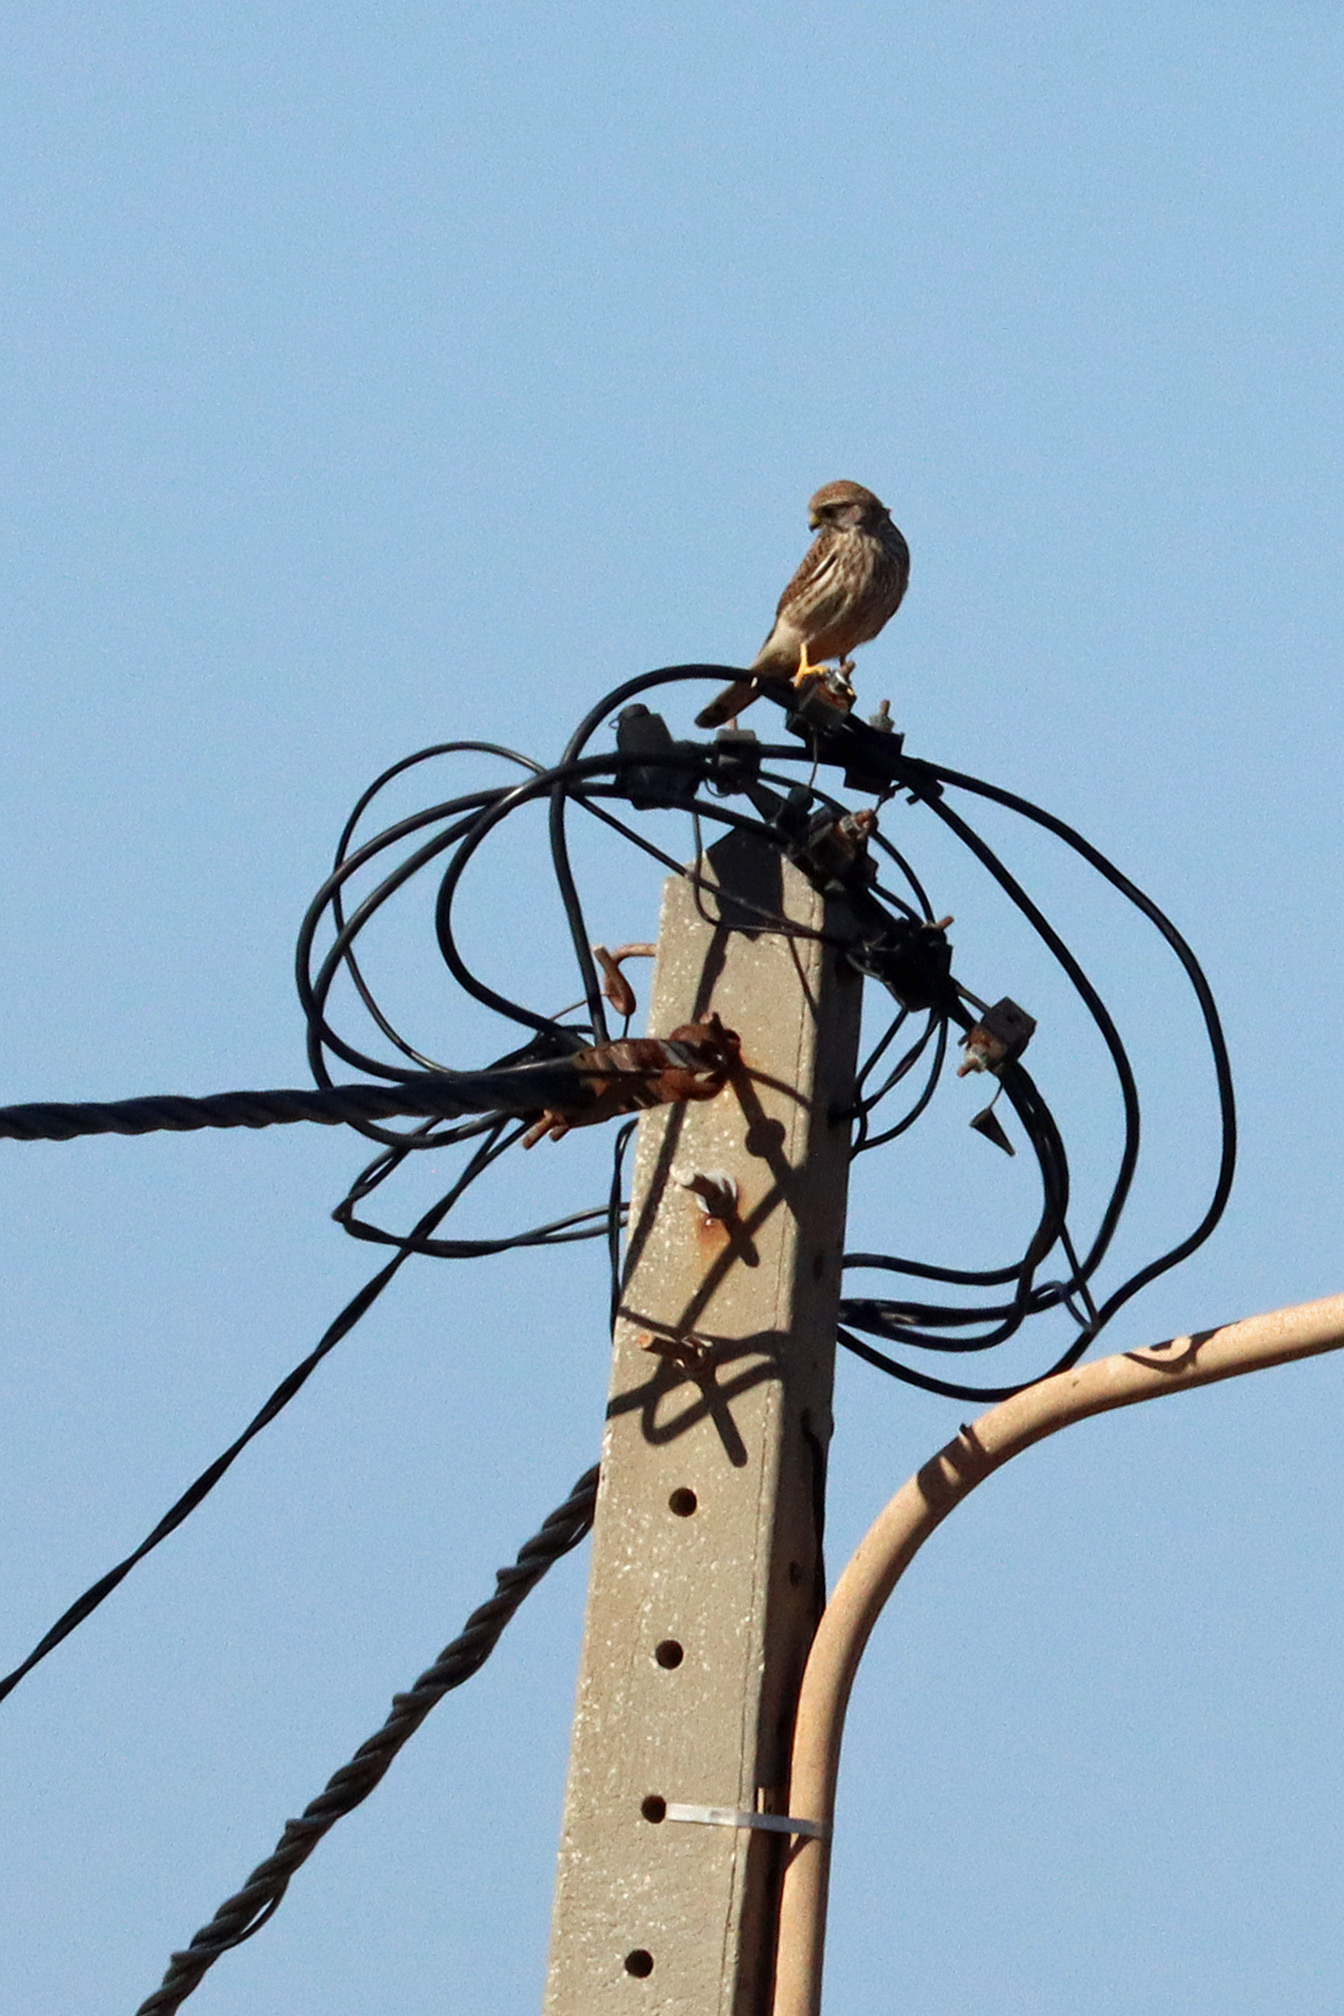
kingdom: Animalia
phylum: Chordata
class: Aves
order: Falconiformes
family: Falconidae
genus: Falco
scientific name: Falco tinnunculus
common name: Common kestrel
